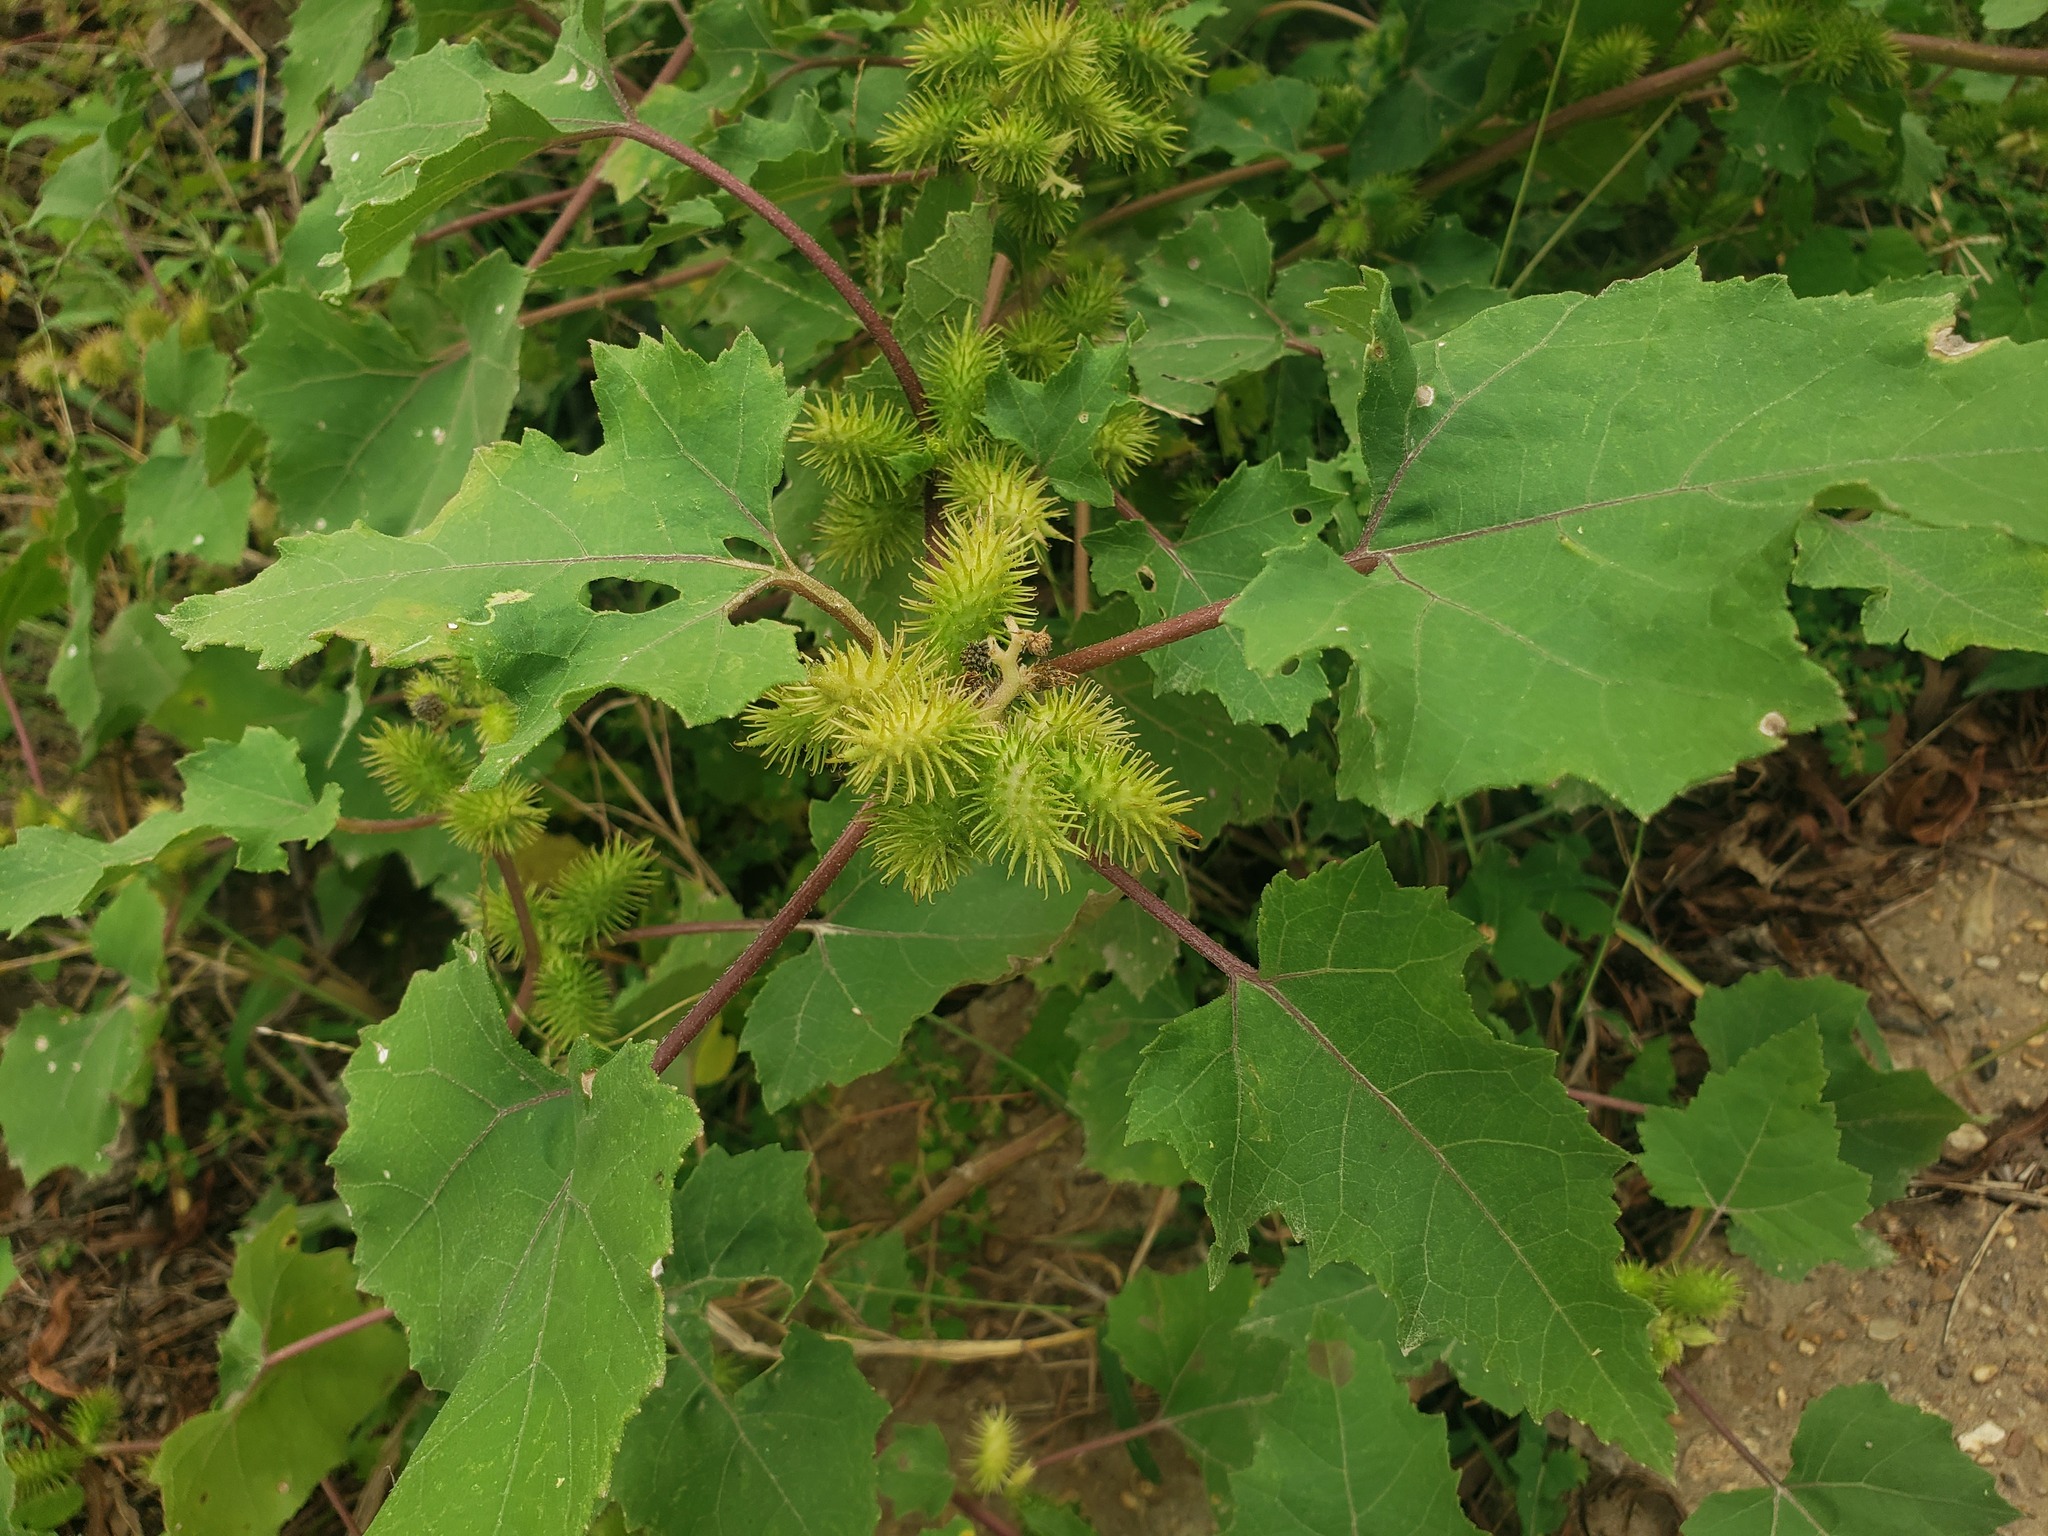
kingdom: Plantae
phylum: Tracheophyta
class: Magnoliopsida
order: Asterales
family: Asteraceae
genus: Xanthium
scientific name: Xanthium strumarium
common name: Rough cocklebur
